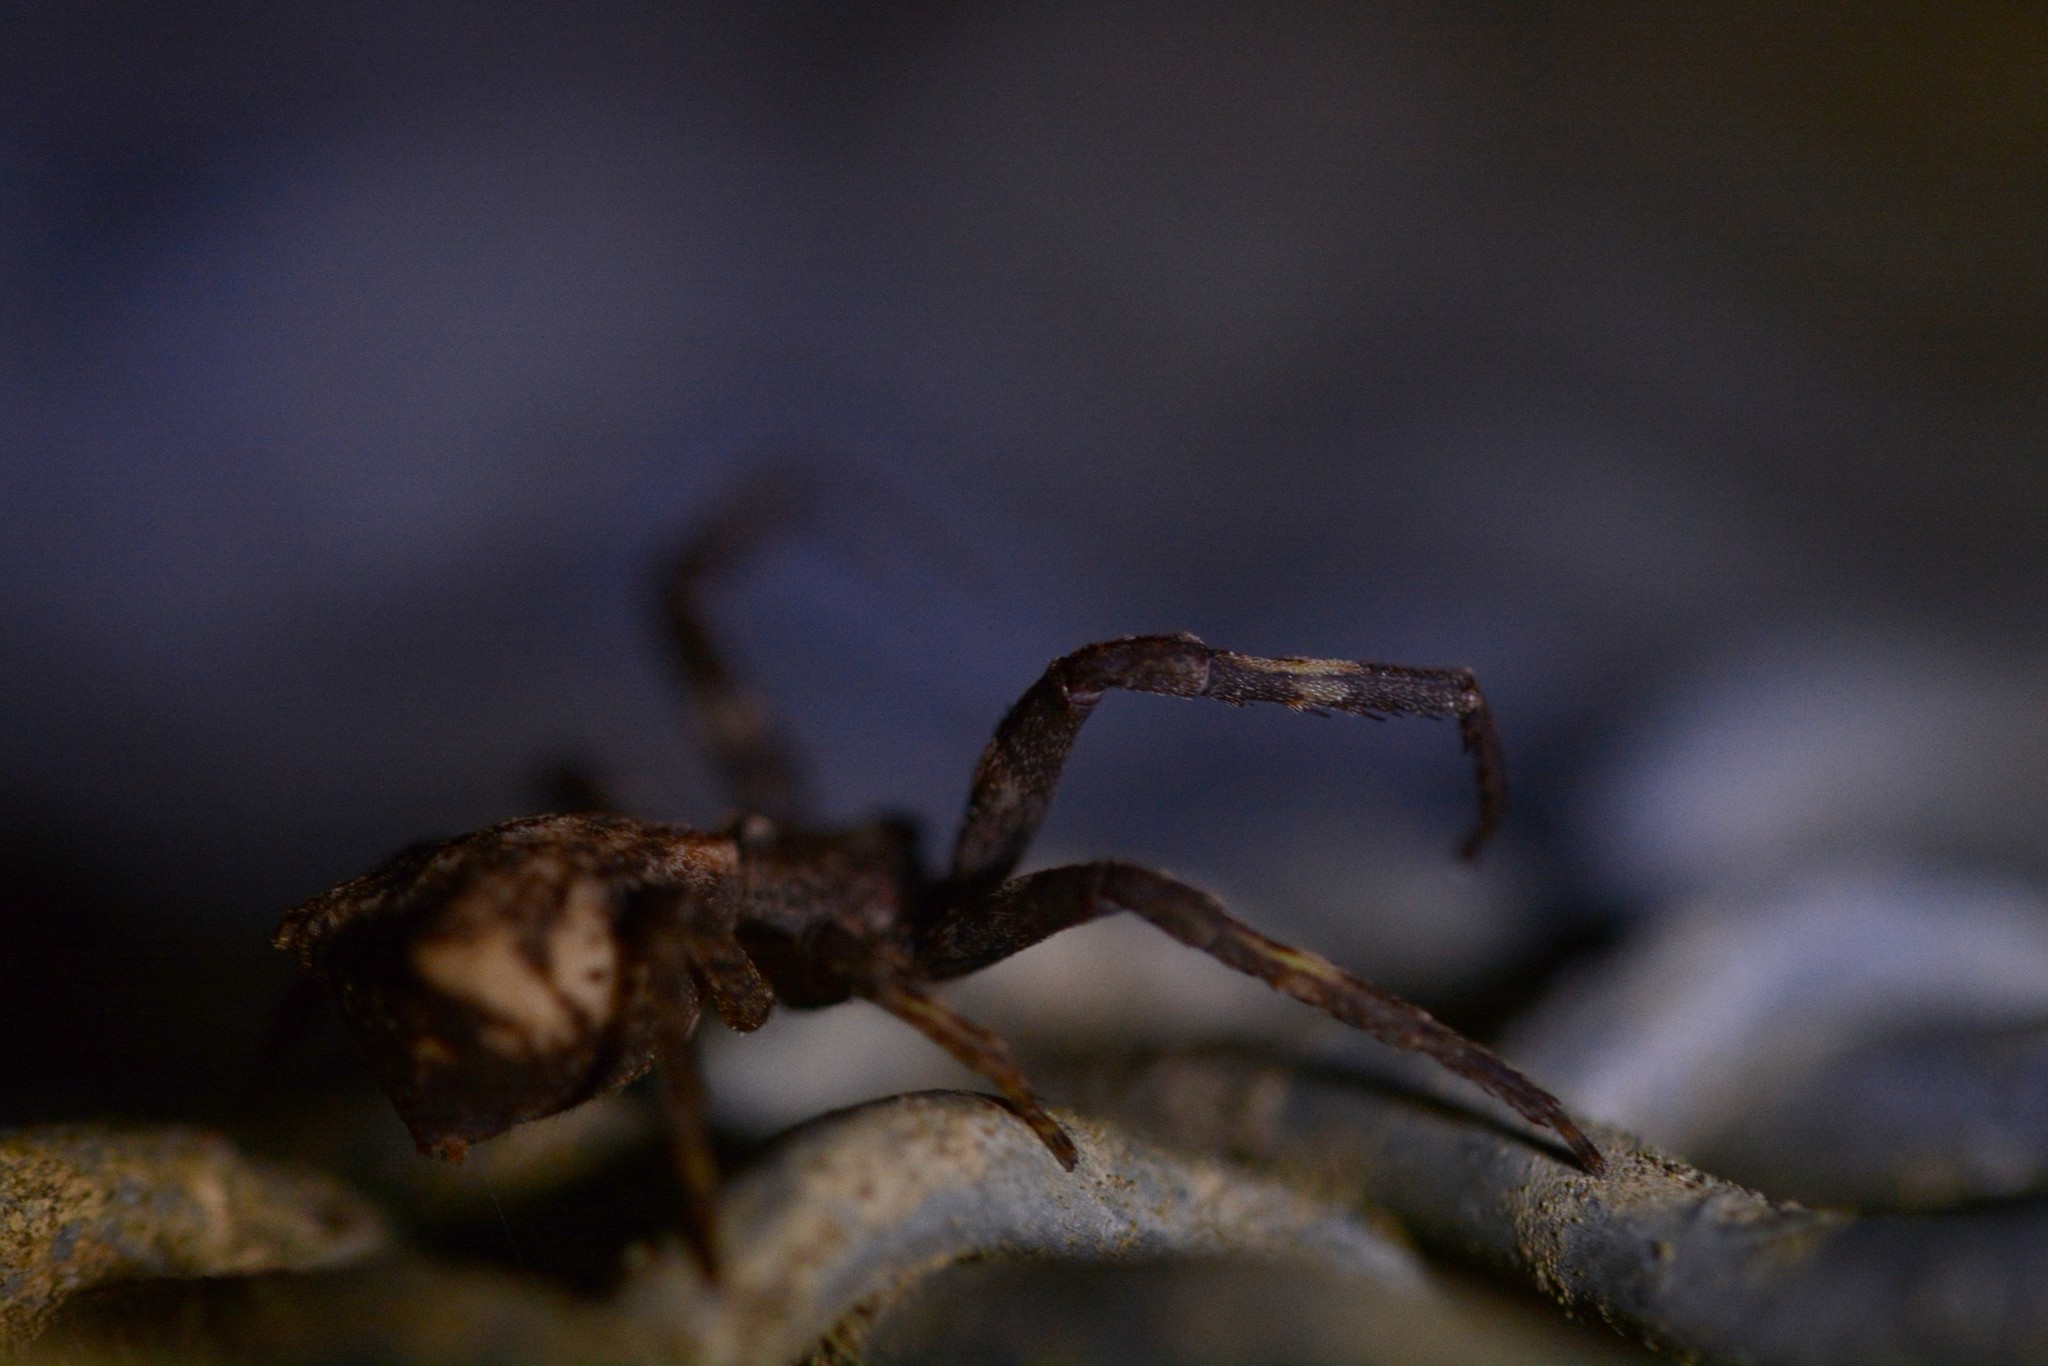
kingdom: Animalia
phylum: Arthropoda
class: Arachnida
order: Araneae
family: Thomisidae
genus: Sidymella
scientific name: Sidymella angulata
